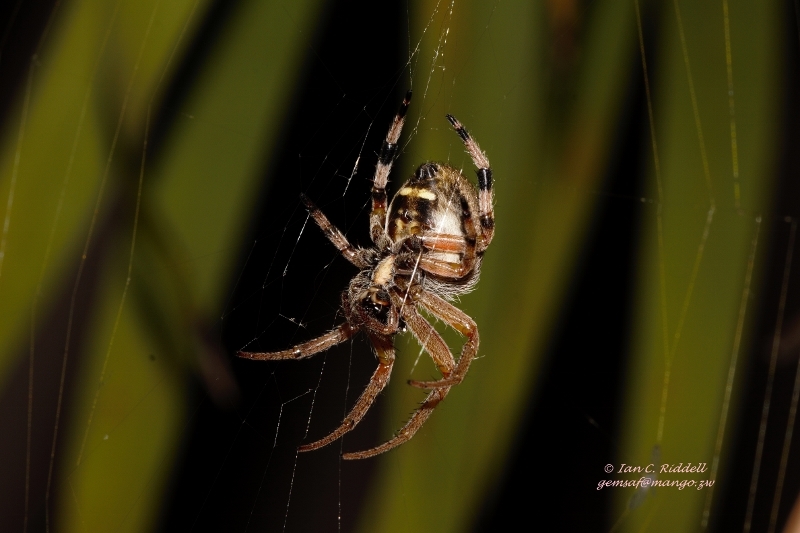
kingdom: Animalia
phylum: Arthropoda
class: Arachnida
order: Araneae
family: Araneidae
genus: Neoscona
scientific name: Neoscona rufipalpis
